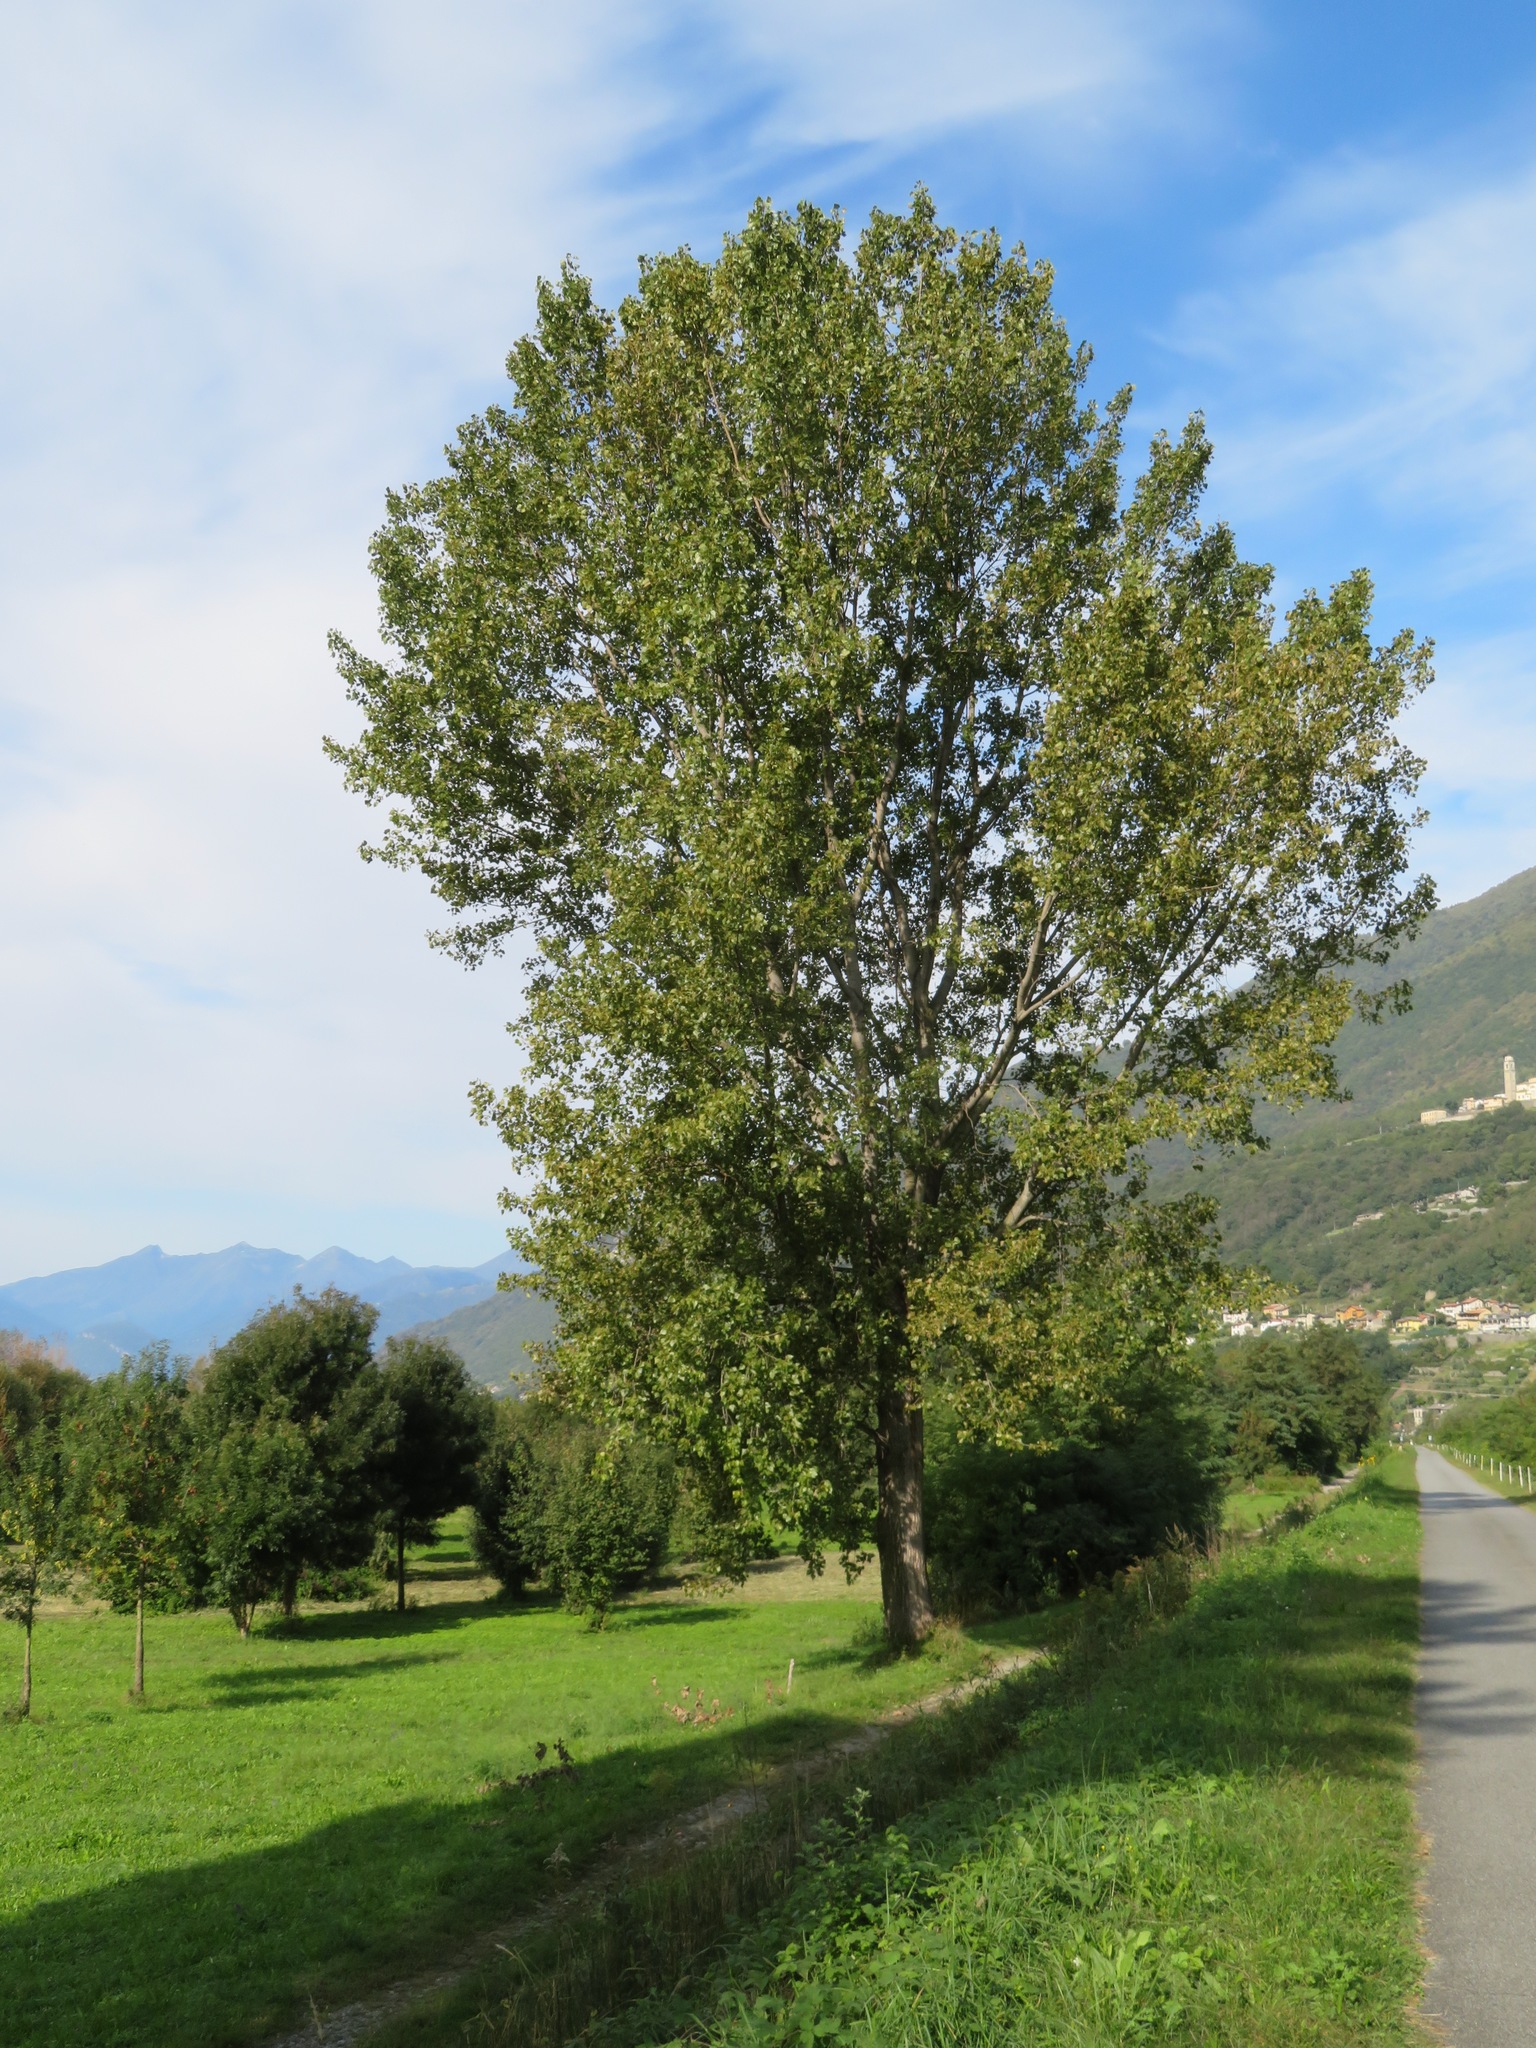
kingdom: Plantae
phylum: Tracheophyta
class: Magnoliopsida
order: Malpighiales
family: Salicaceae
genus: Populus
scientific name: Populus nigra
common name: Black poplar
